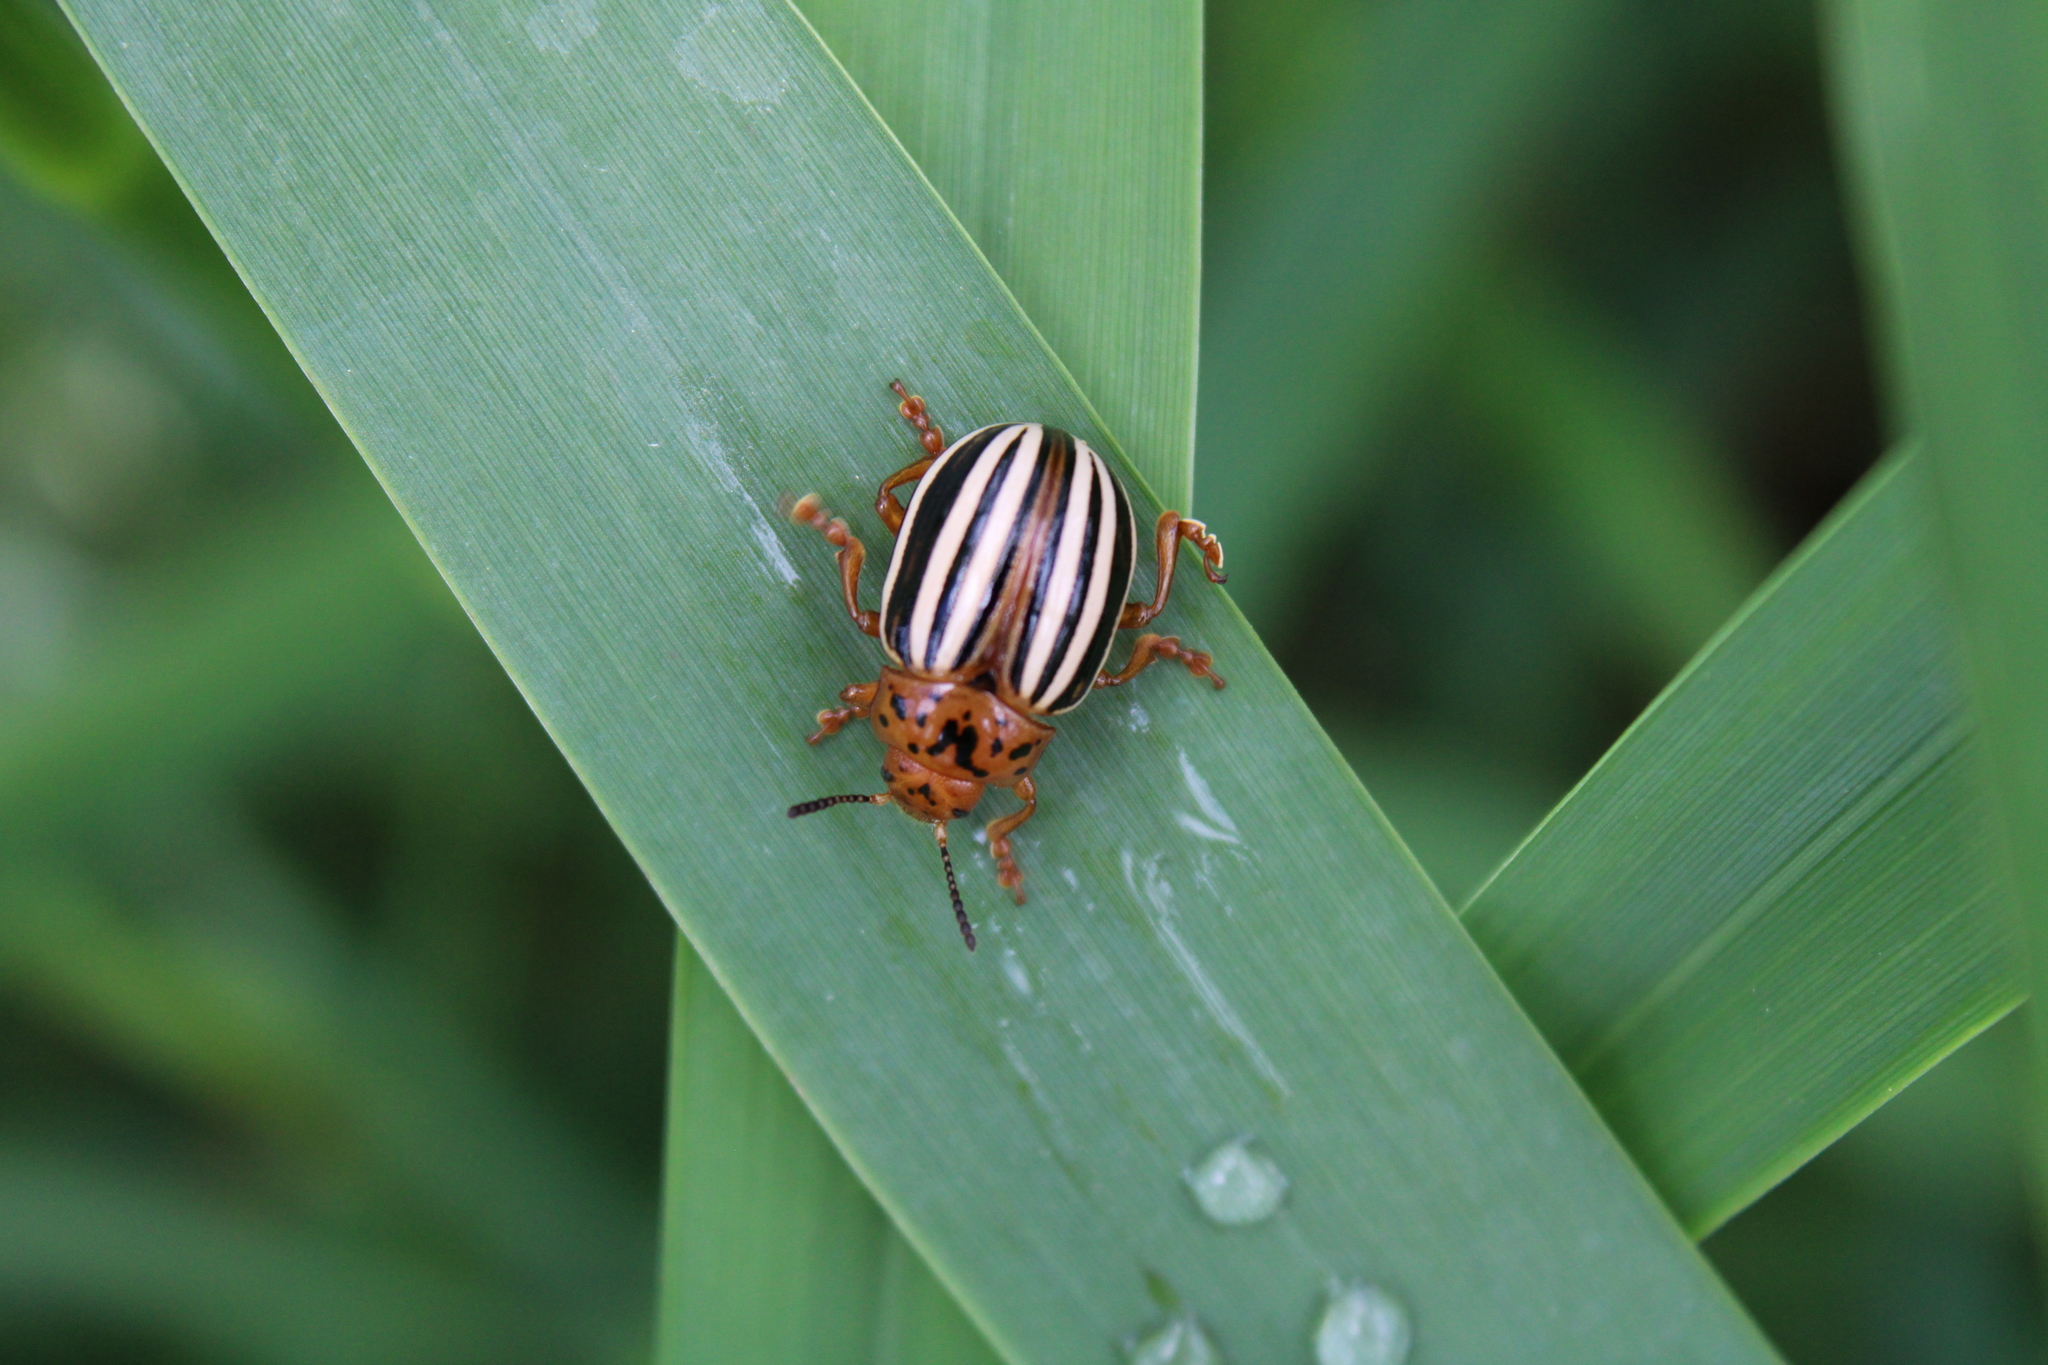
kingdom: Animalia
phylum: Arthropoda
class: Insecta
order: Coleoptera
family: Chrysomelidae
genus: Leptinotarsa
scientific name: Leptinotarsa juncta
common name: False potato beetle
